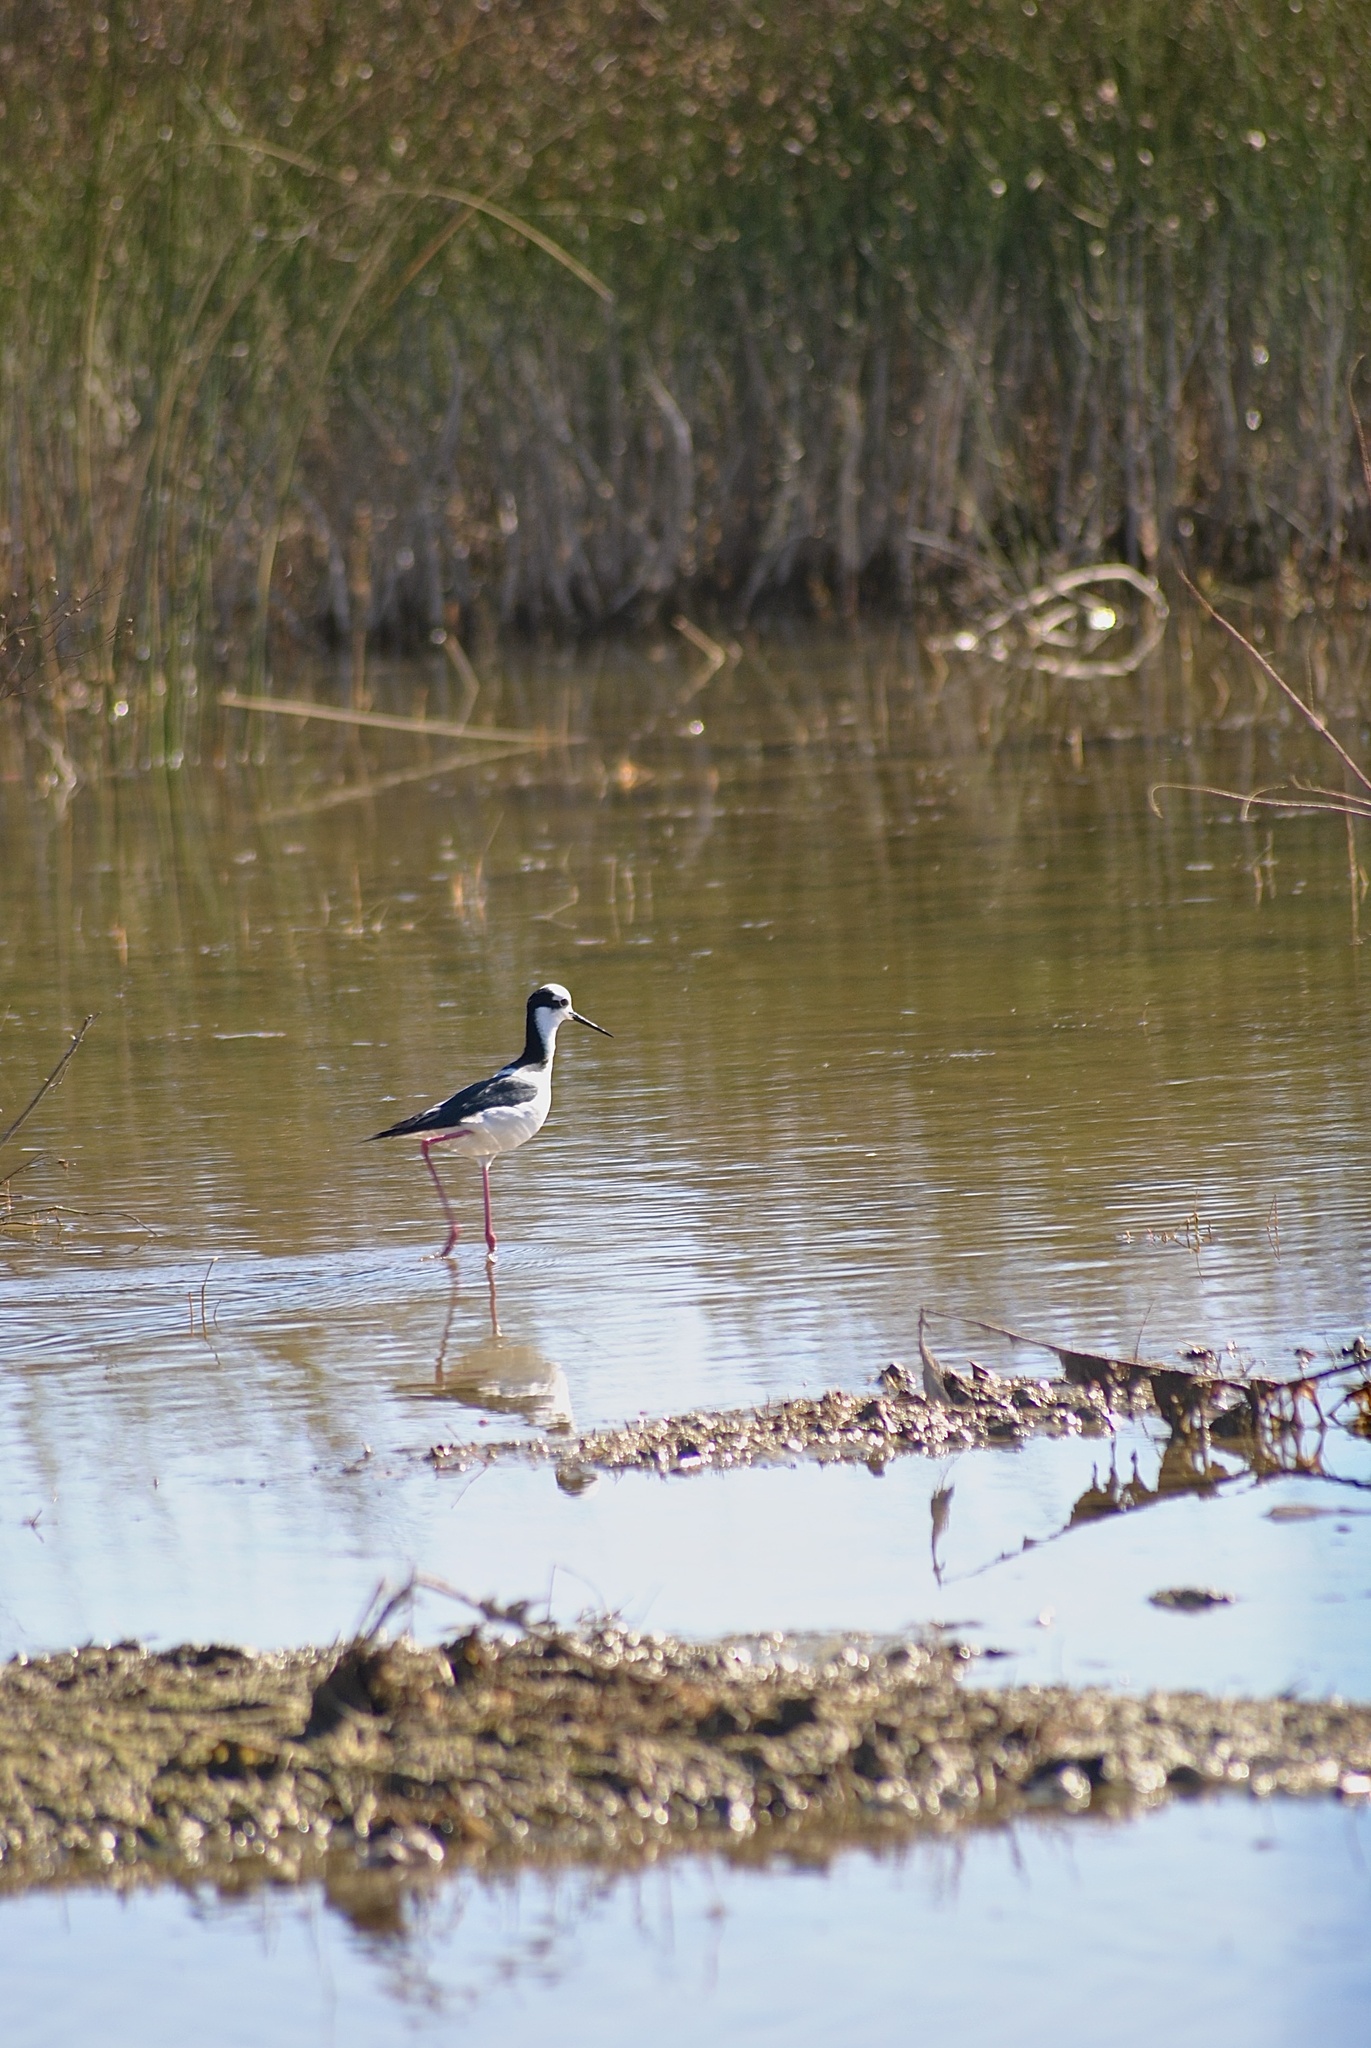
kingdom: Animalia
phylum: Chordata
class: Aves
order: Charadriiformes
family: Recurvirostridae
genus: Himantopus
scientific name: Himantopus mexicanus
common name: Black-necked stilt
